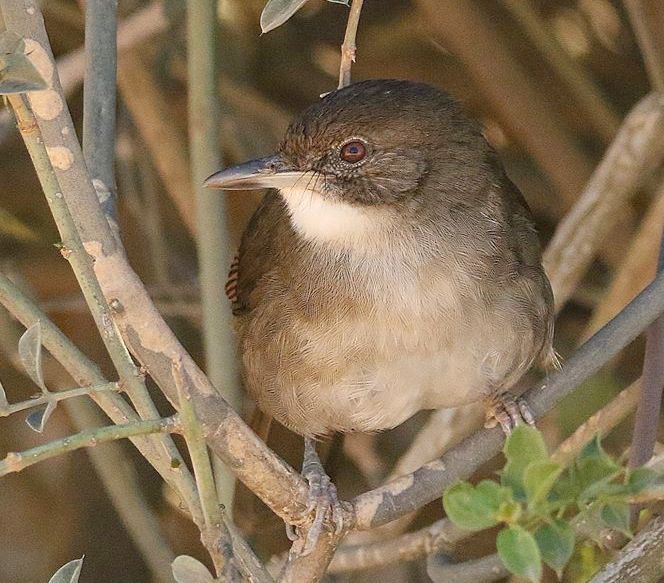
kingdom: Animalia
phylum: Chordata
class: Aves
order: Passeriformes
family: Pycnonotidae
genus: Phyllastrephus
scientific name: Phyllastrephus terrestris
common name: Terrestrial brownbul
